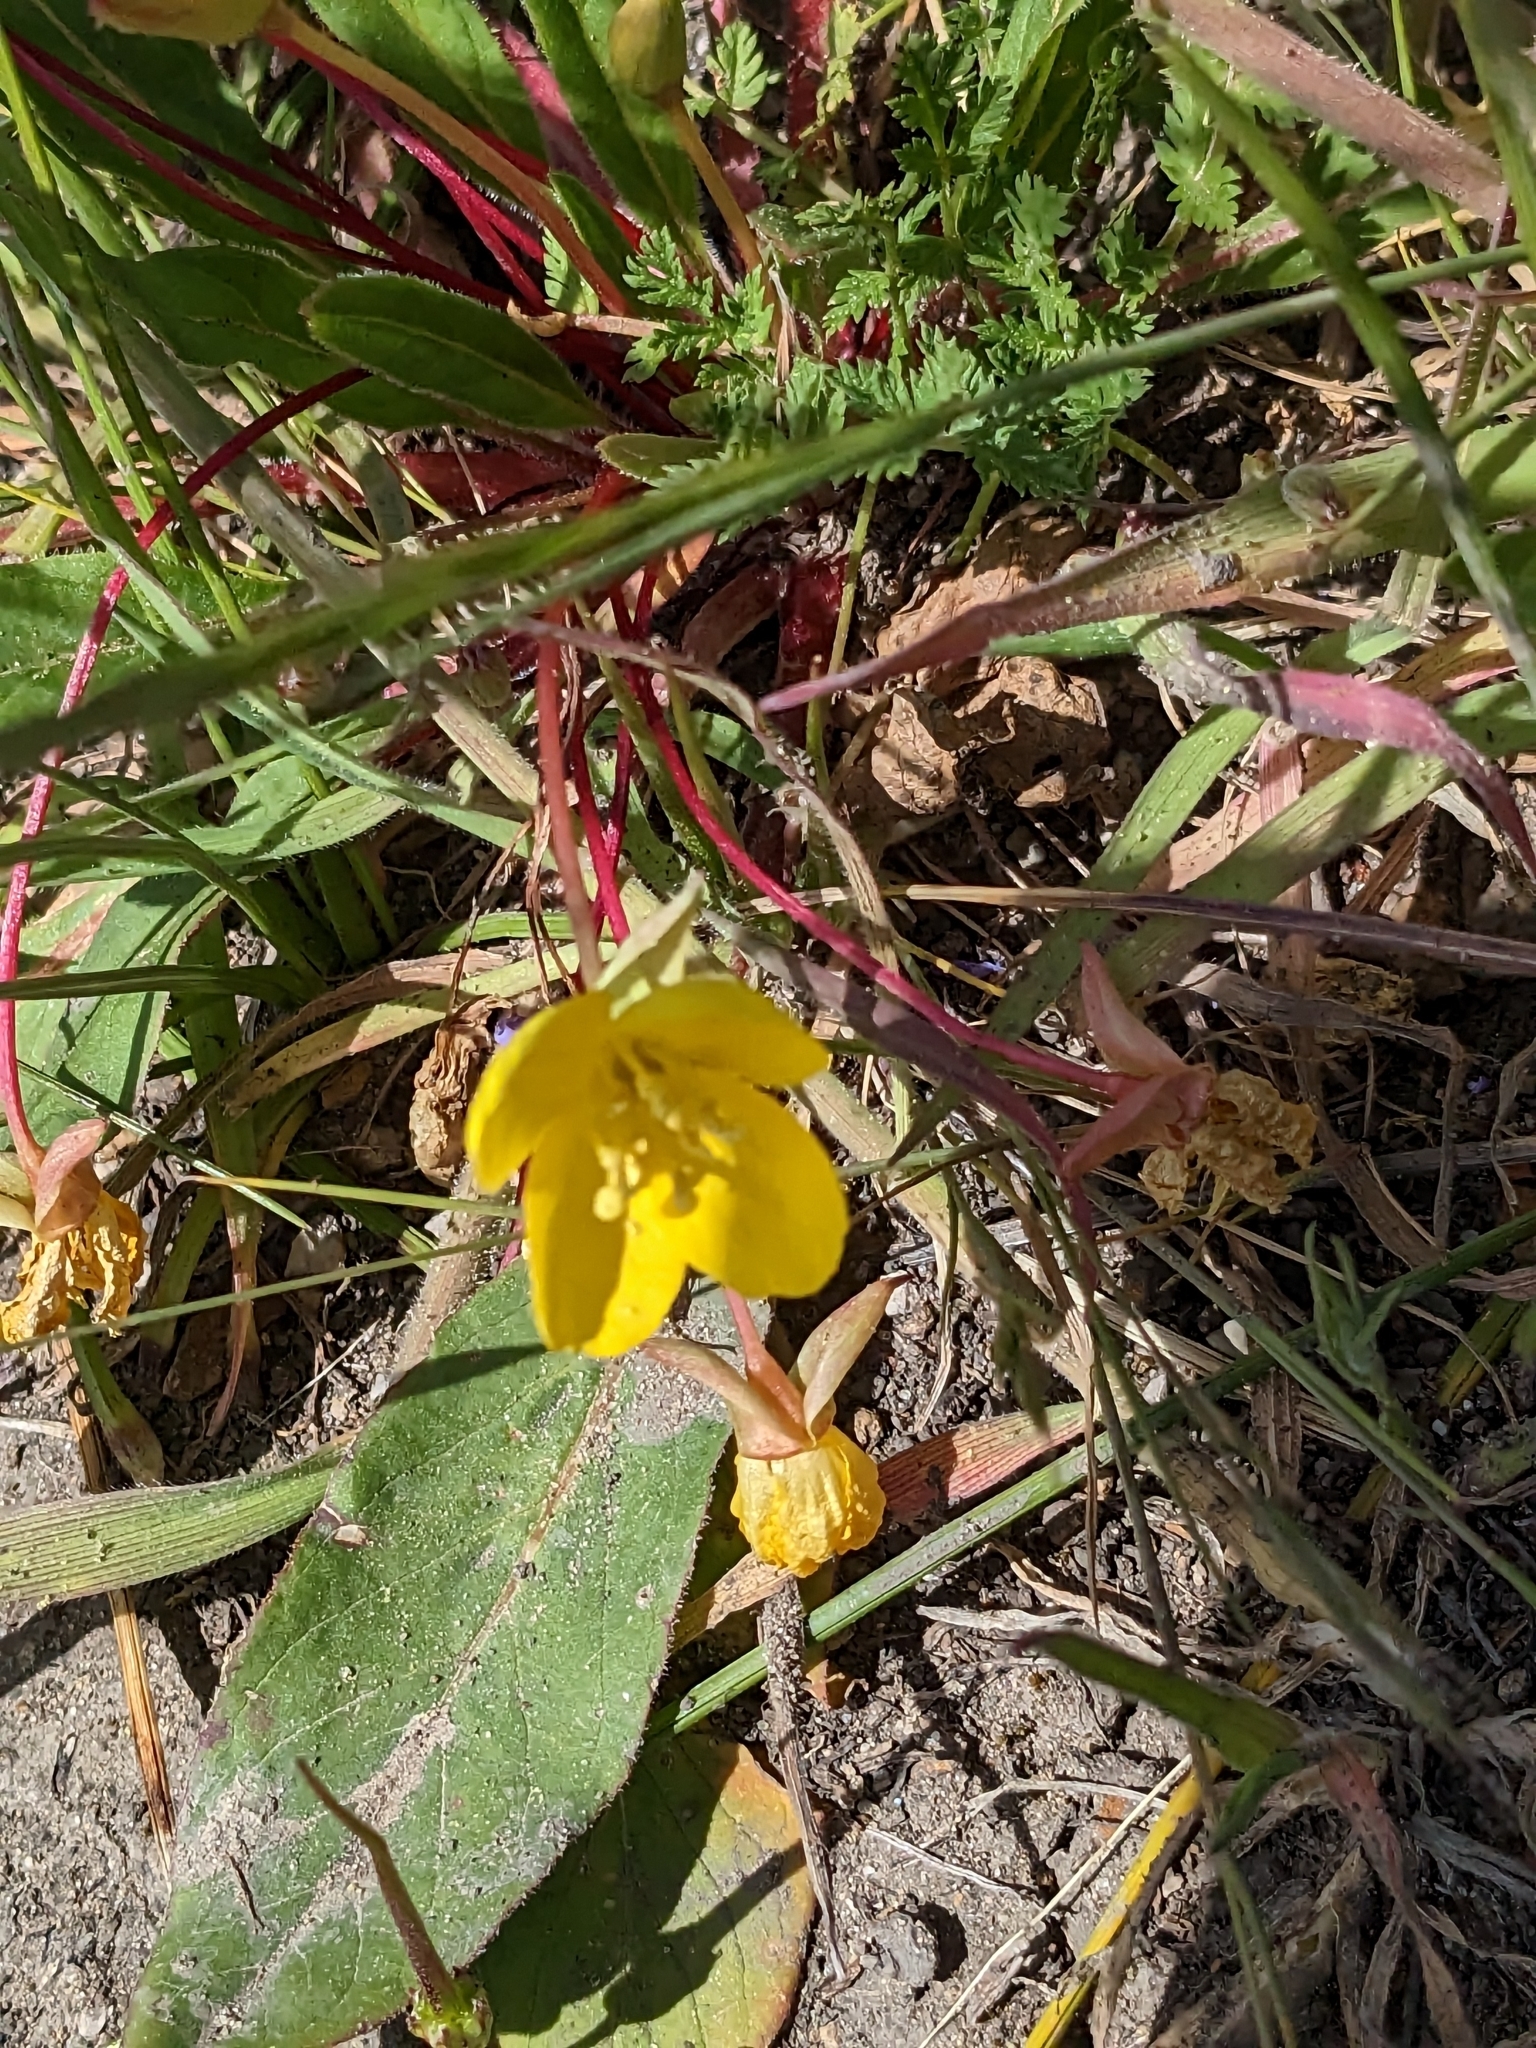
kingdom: Plantae
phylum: Tracheophyta
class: Magnoliopsida
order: Myrtales
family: Onagraceae
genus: Taraxia
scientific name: Taraxia ovata
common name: Goldeneggs
